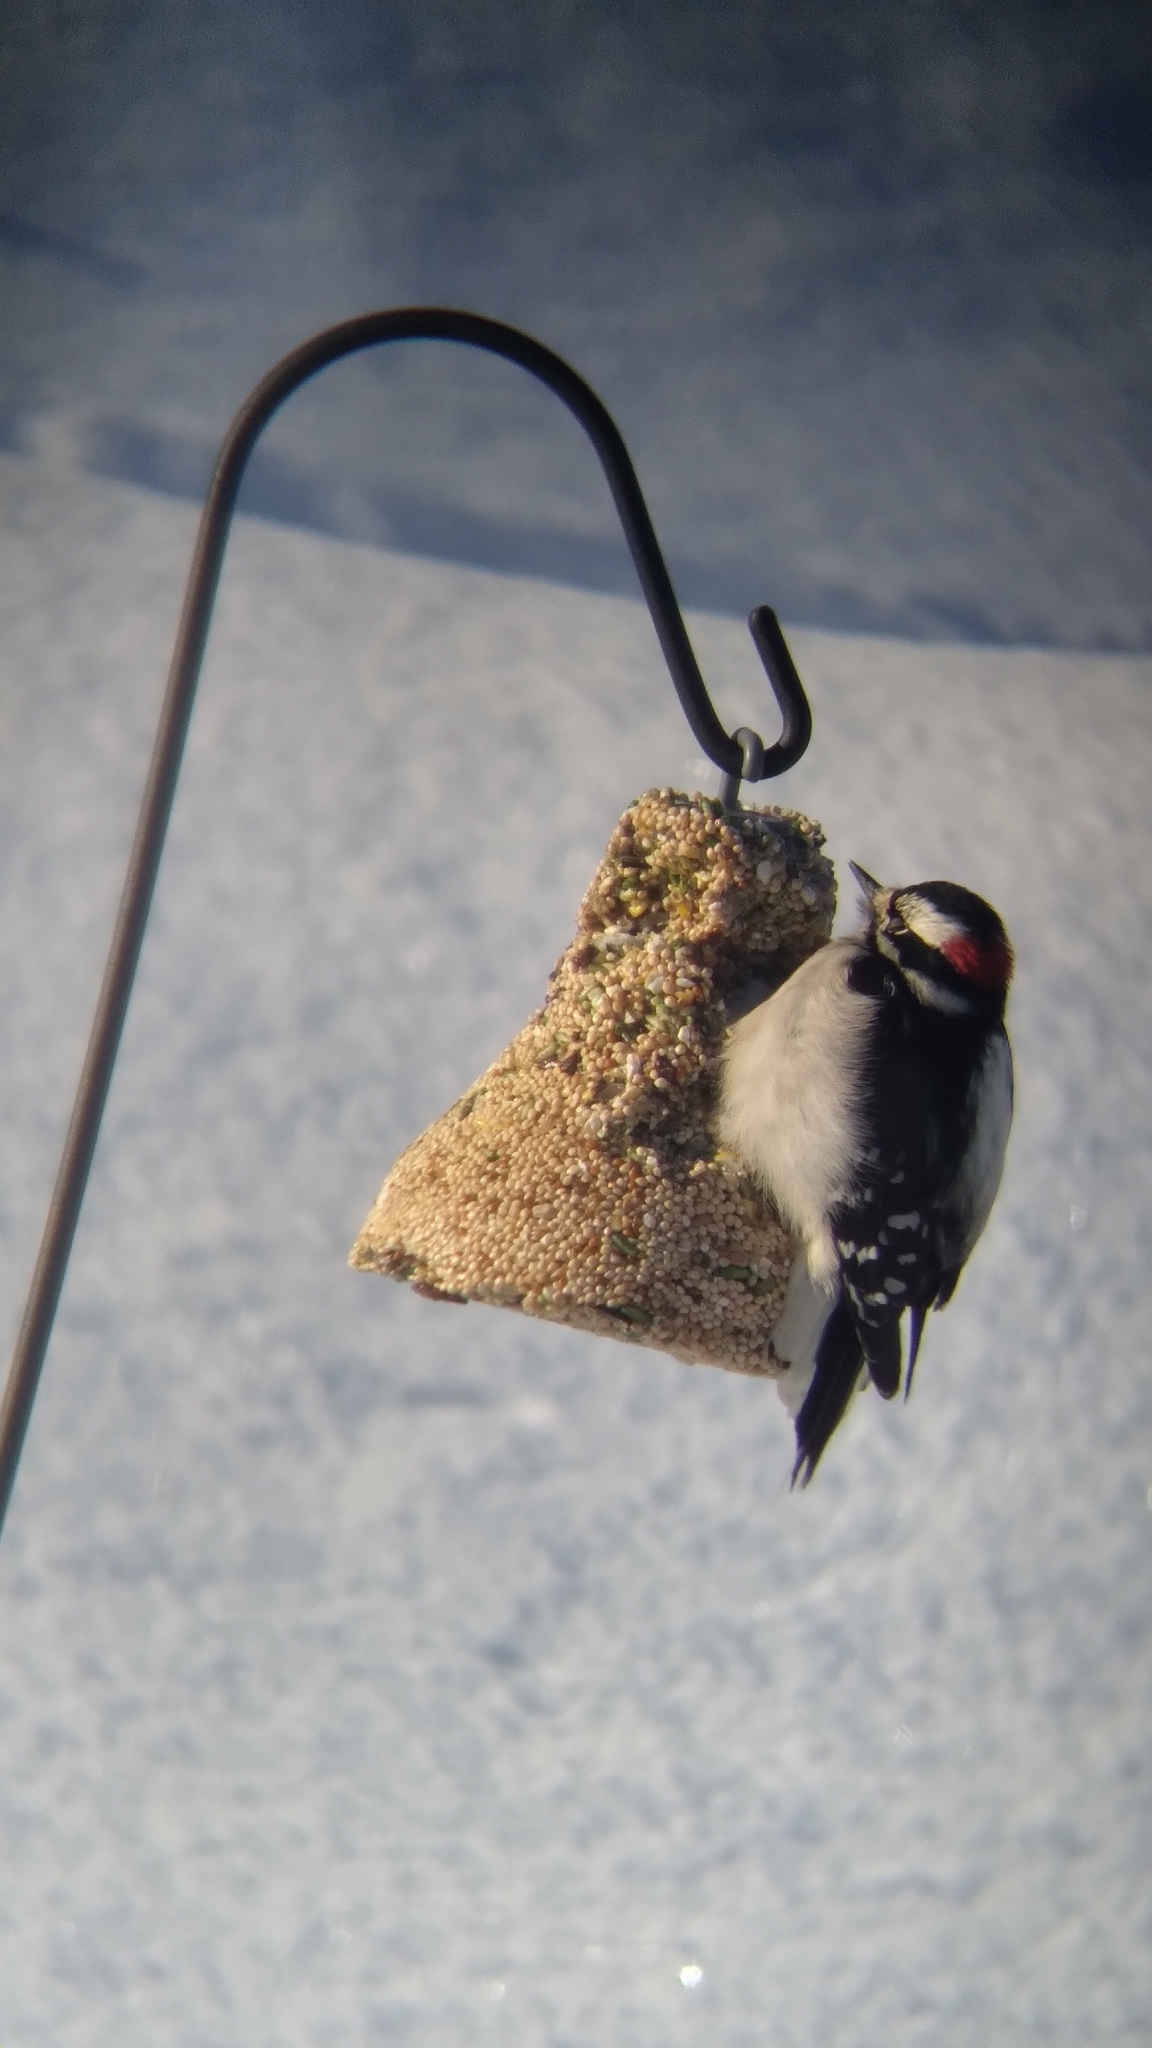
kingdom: Animalia
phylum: Chordata
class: Aves
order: Piciformes
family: Picidae
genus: Dryobates
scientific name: Dryobates pubescens
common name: Downy woodpecker
